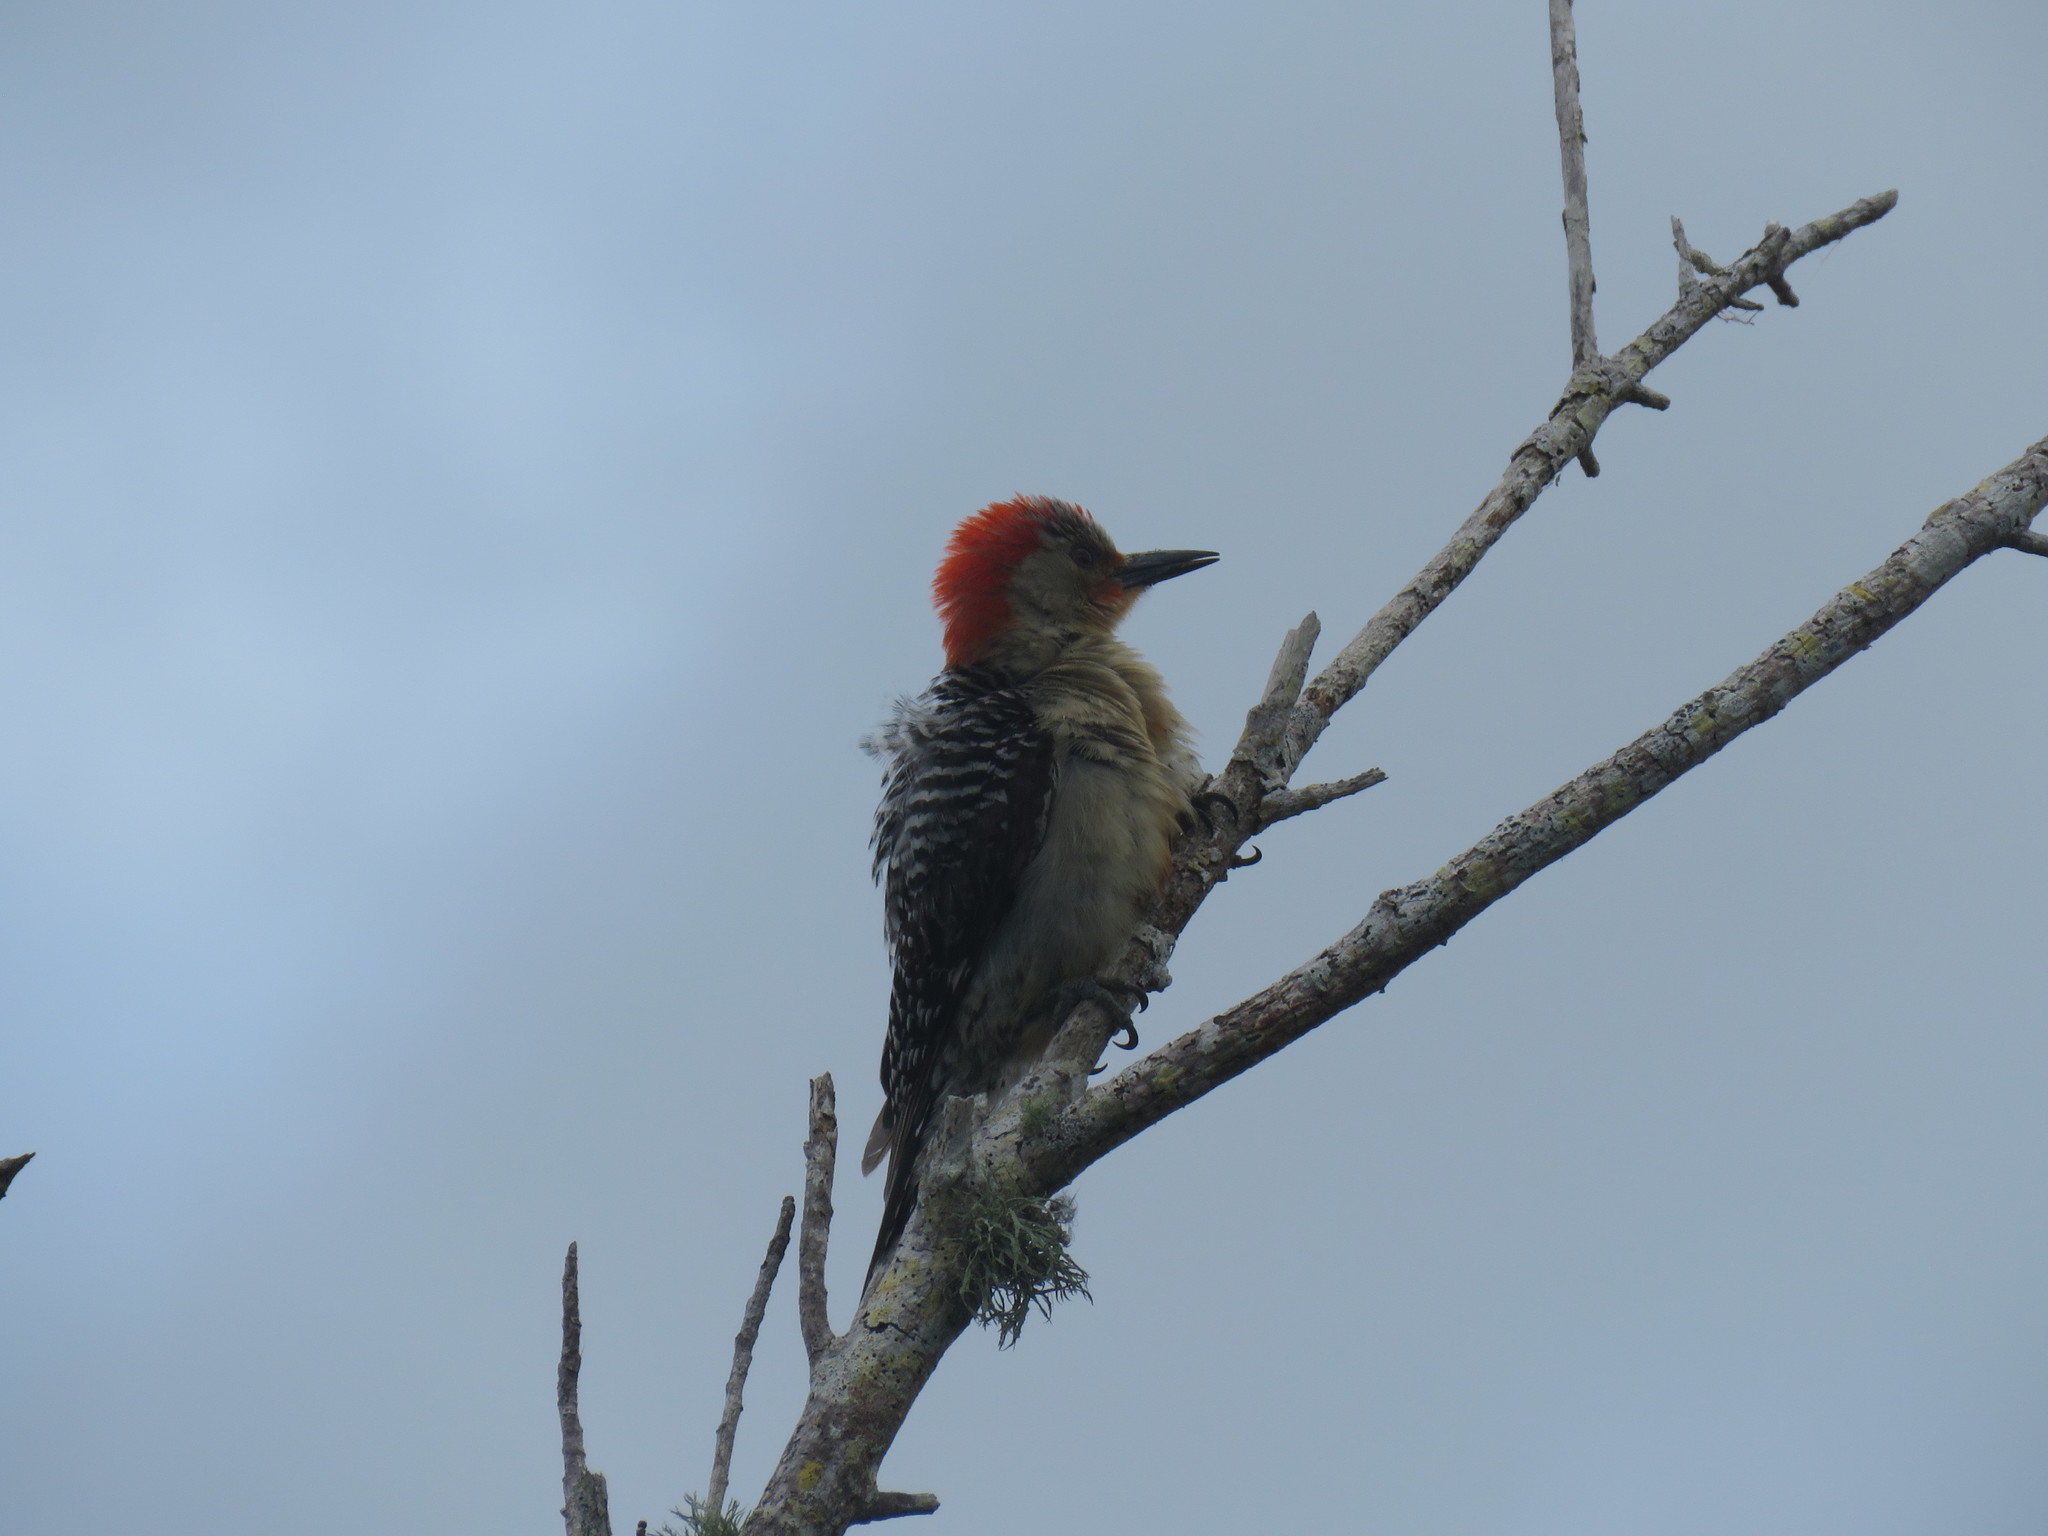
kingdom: Animalia
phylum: Chordata
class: Aves
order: Piciformes
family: Picidae
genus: Melanerpes
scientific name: Melanerpes carolinus
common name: Red-bellied woodpecker
